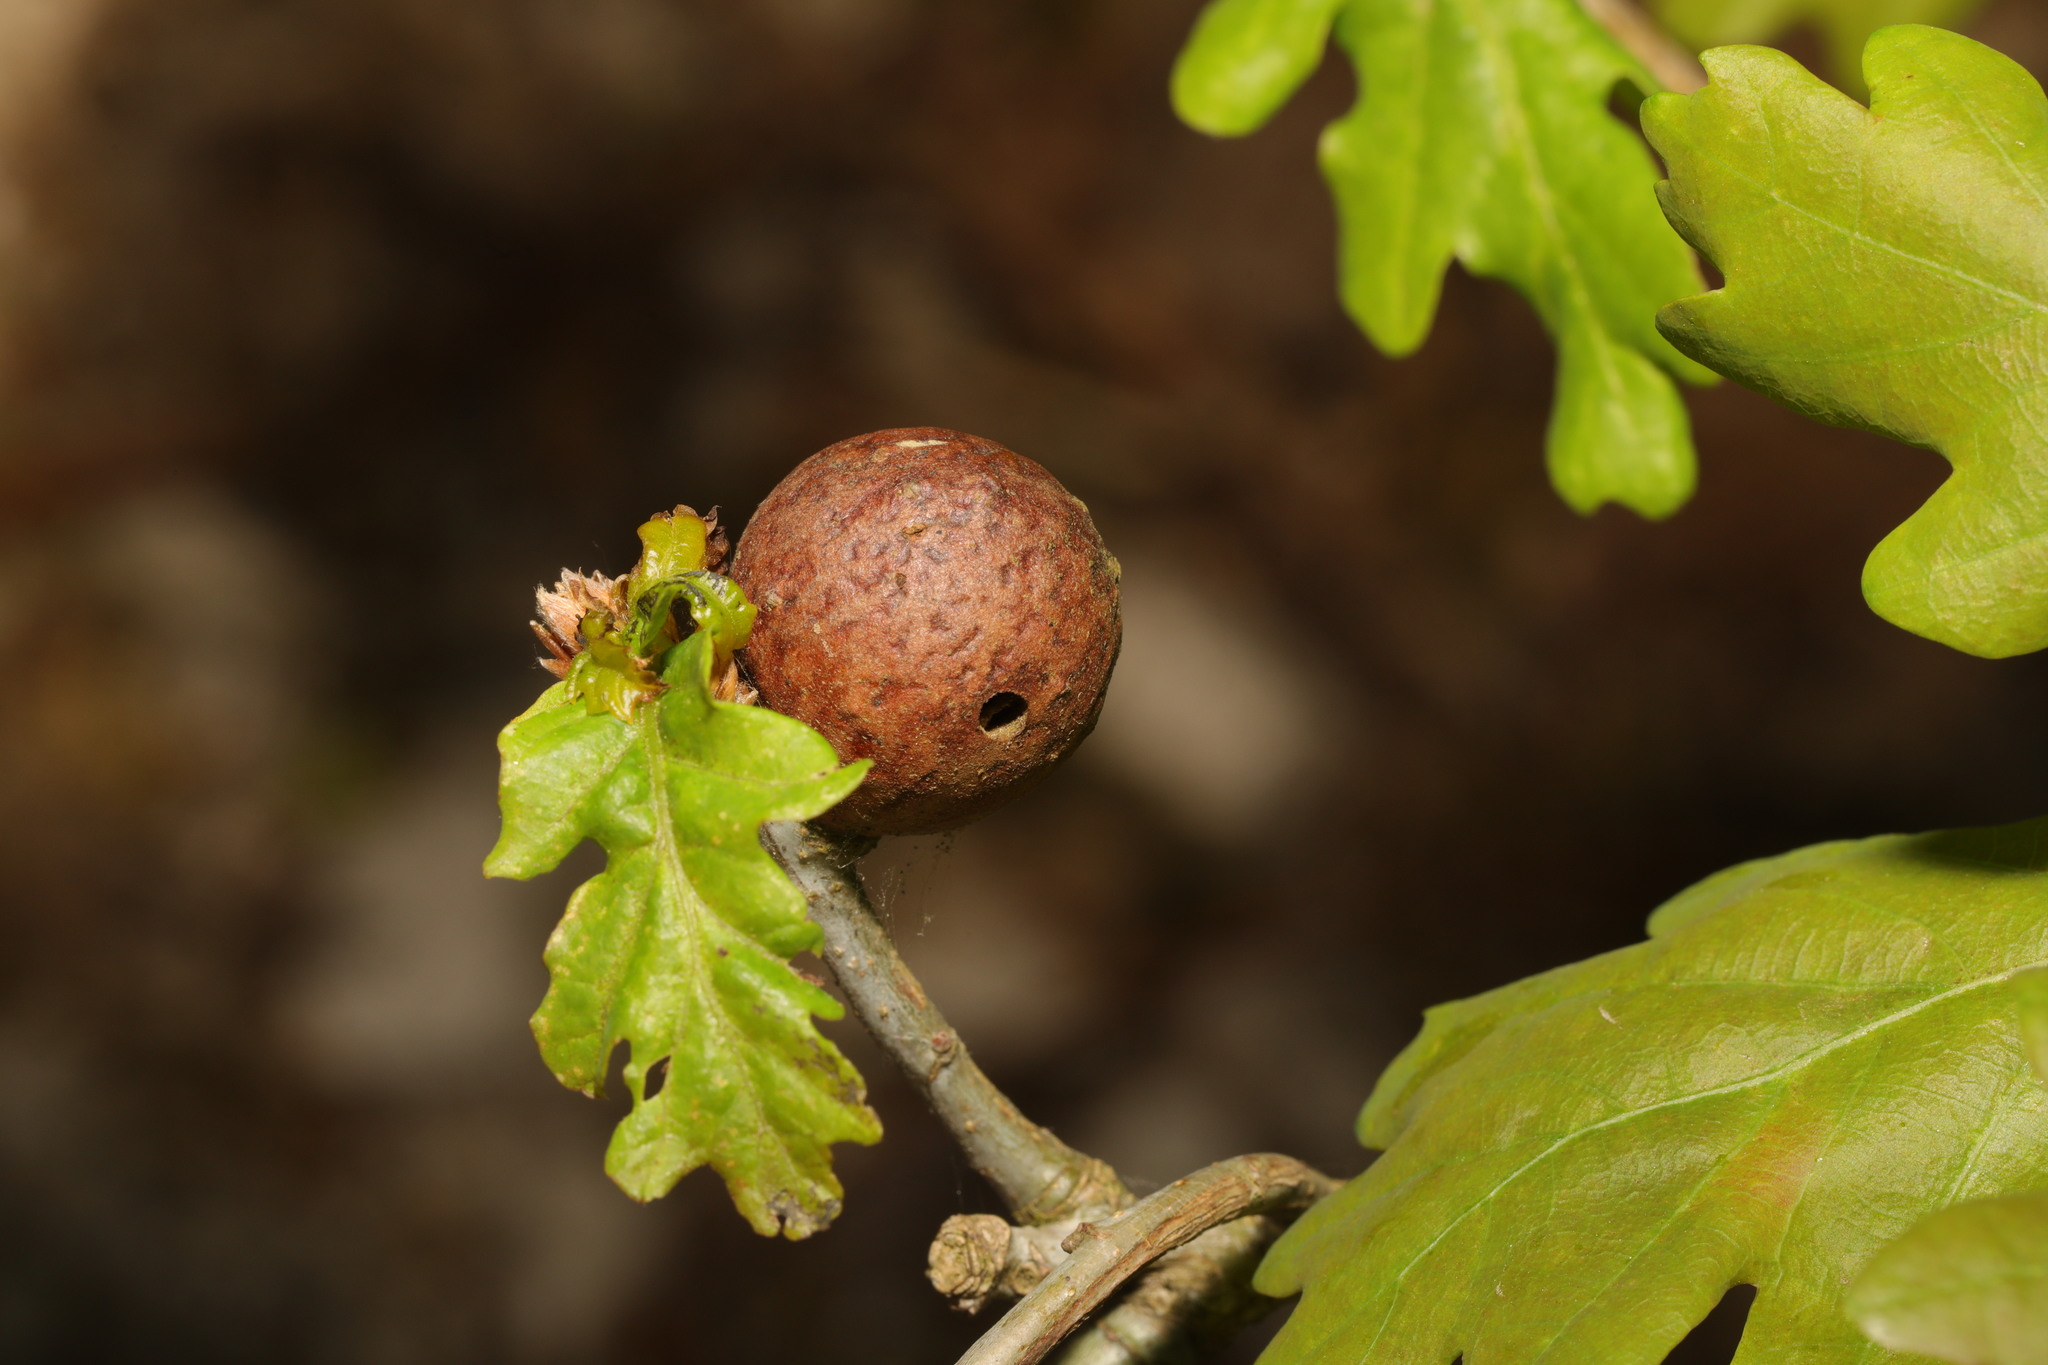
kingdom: Animalia
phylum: Arthropoda
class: Insecta
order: Hymenoptera
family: Cynipidae
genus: Andricus
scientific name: Andricus kollari
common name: Marble gall
